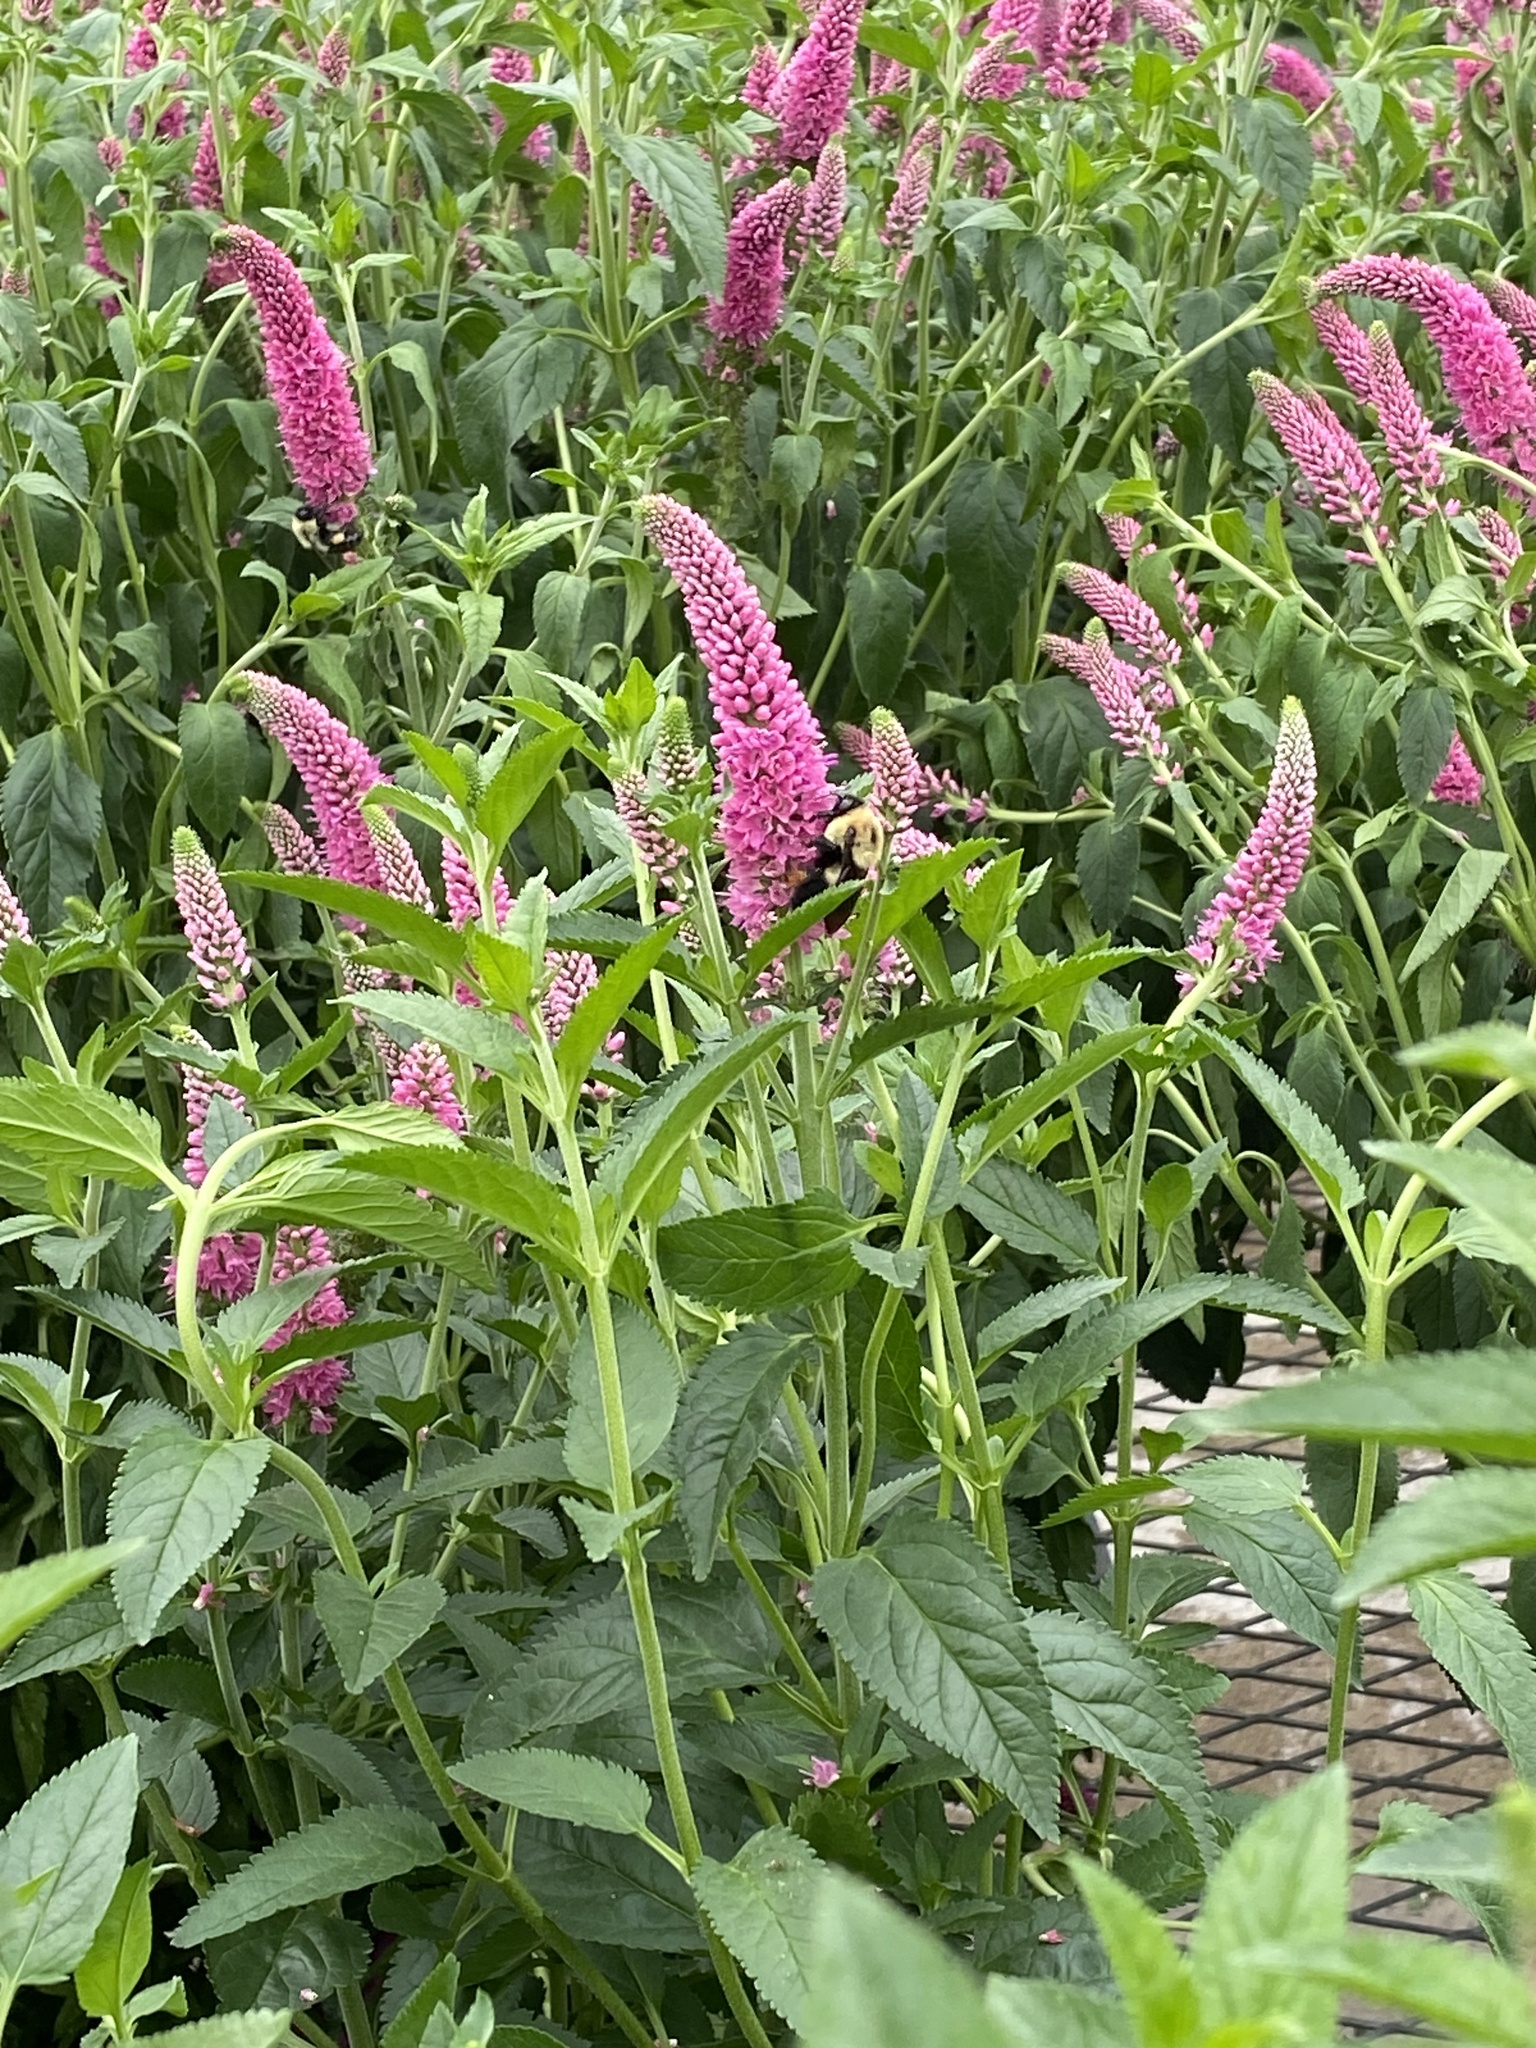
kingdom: Animalia
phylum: Arthropoda
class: Insecta
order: Hymenoptera
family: Apidae
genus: Bombus
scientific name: Bombus griseocollis
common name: Brown-belted bumble bee
